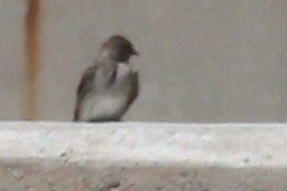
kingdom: Animalia
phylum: Chordata
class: Aves
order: Passeriformes
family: Hirundinidae
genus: Stelgidopteryx
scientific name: Stelgidopteryx serripennis
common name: Northern rough-winged swallow
